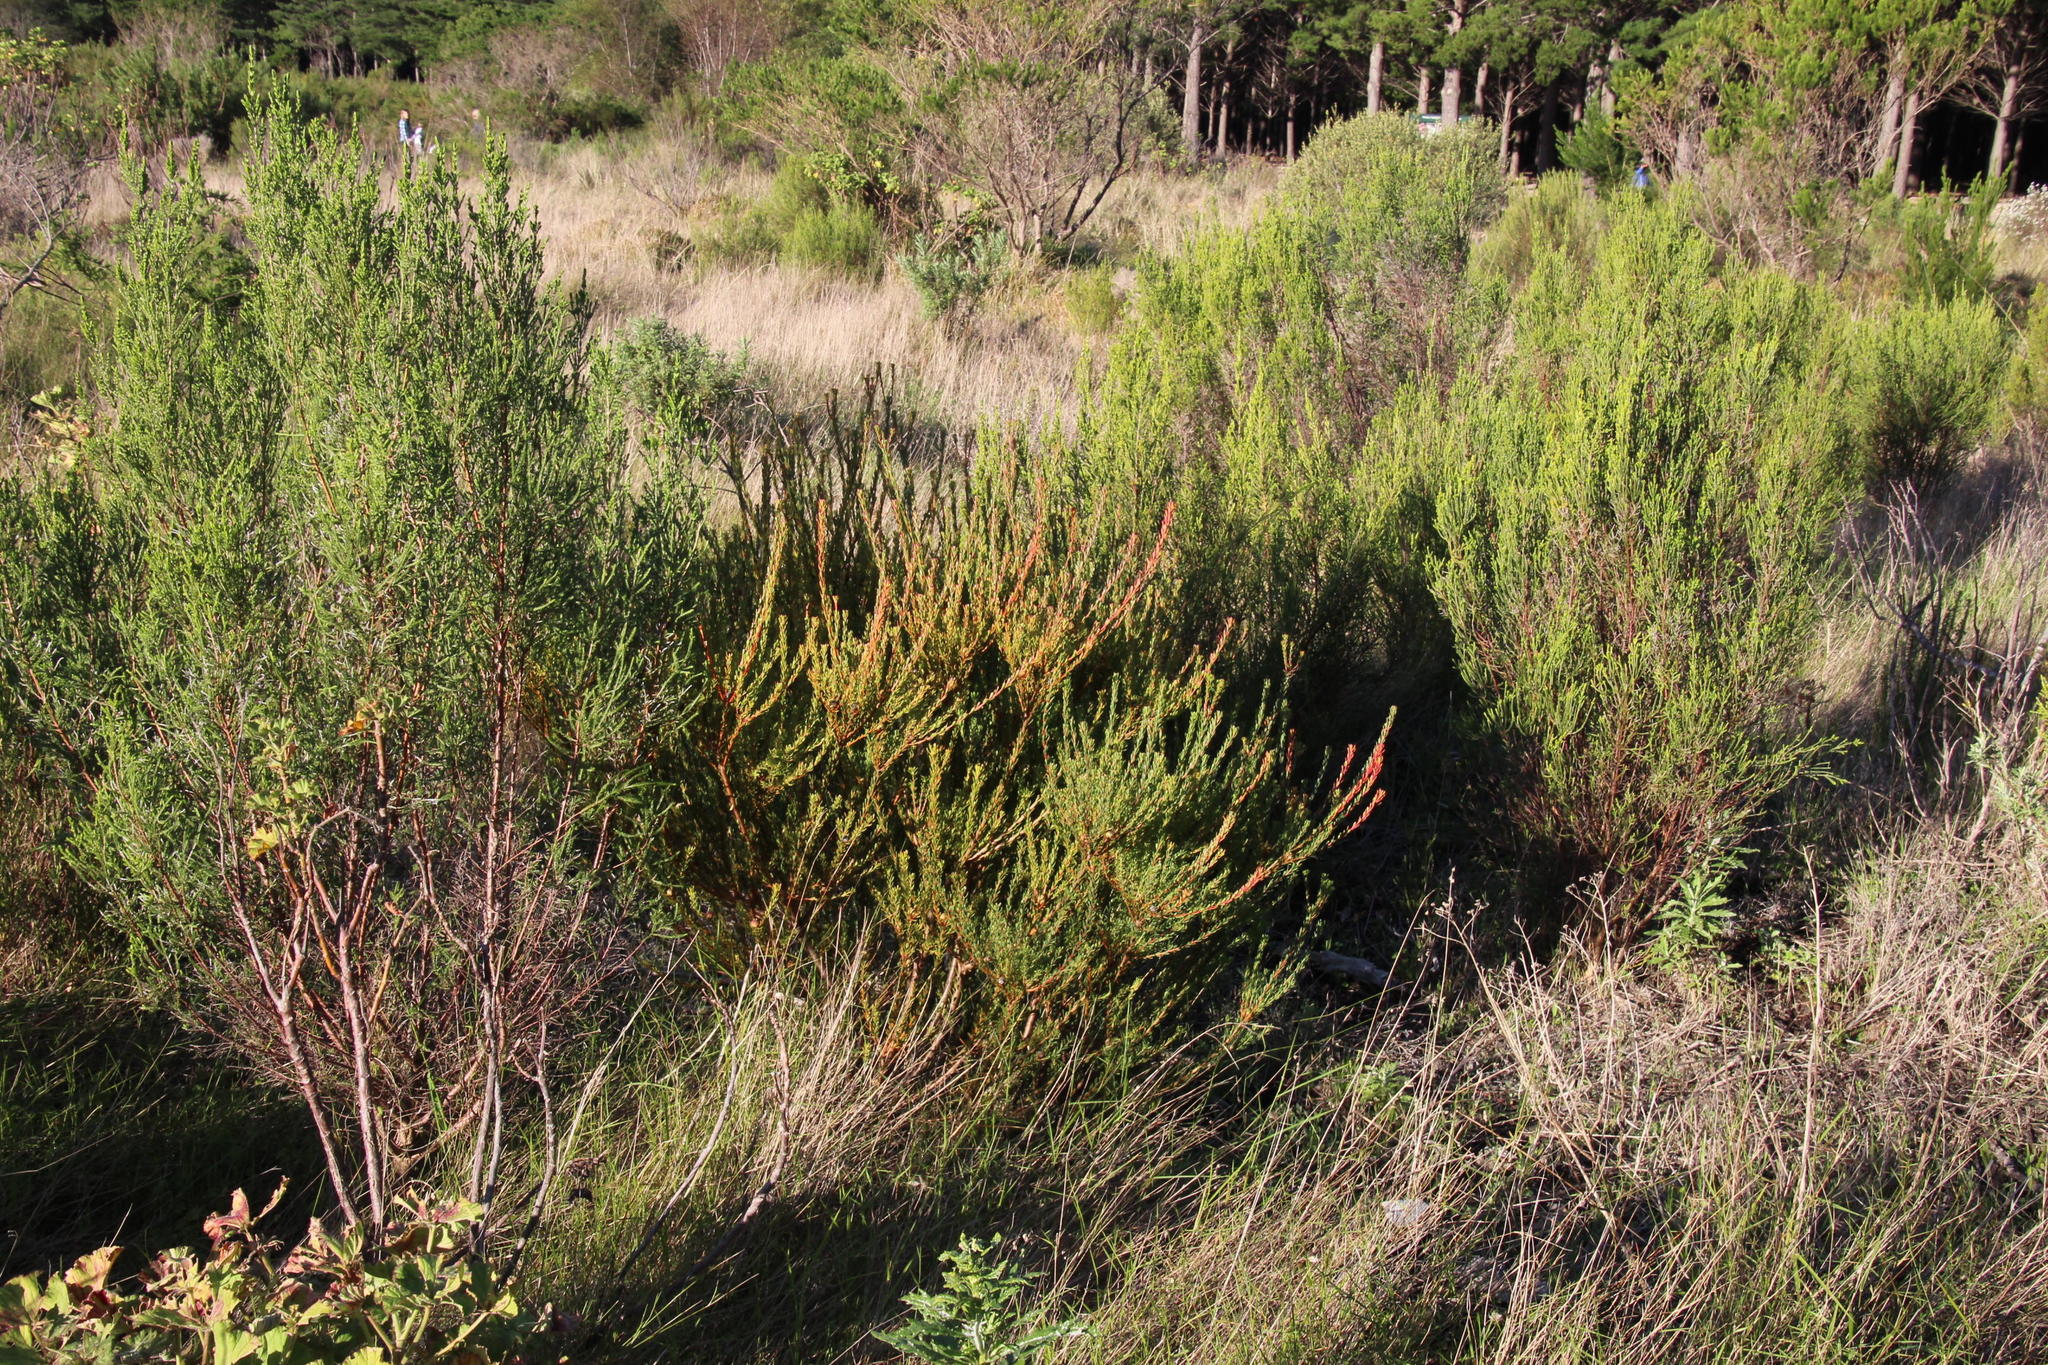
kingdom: Plantae
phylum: Tracheophyta
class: Magnoliopsida
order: Proteales
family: Proteaceae
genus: Leucadendron
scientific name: Leucadendron levisanus
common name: Cape flats conebush
